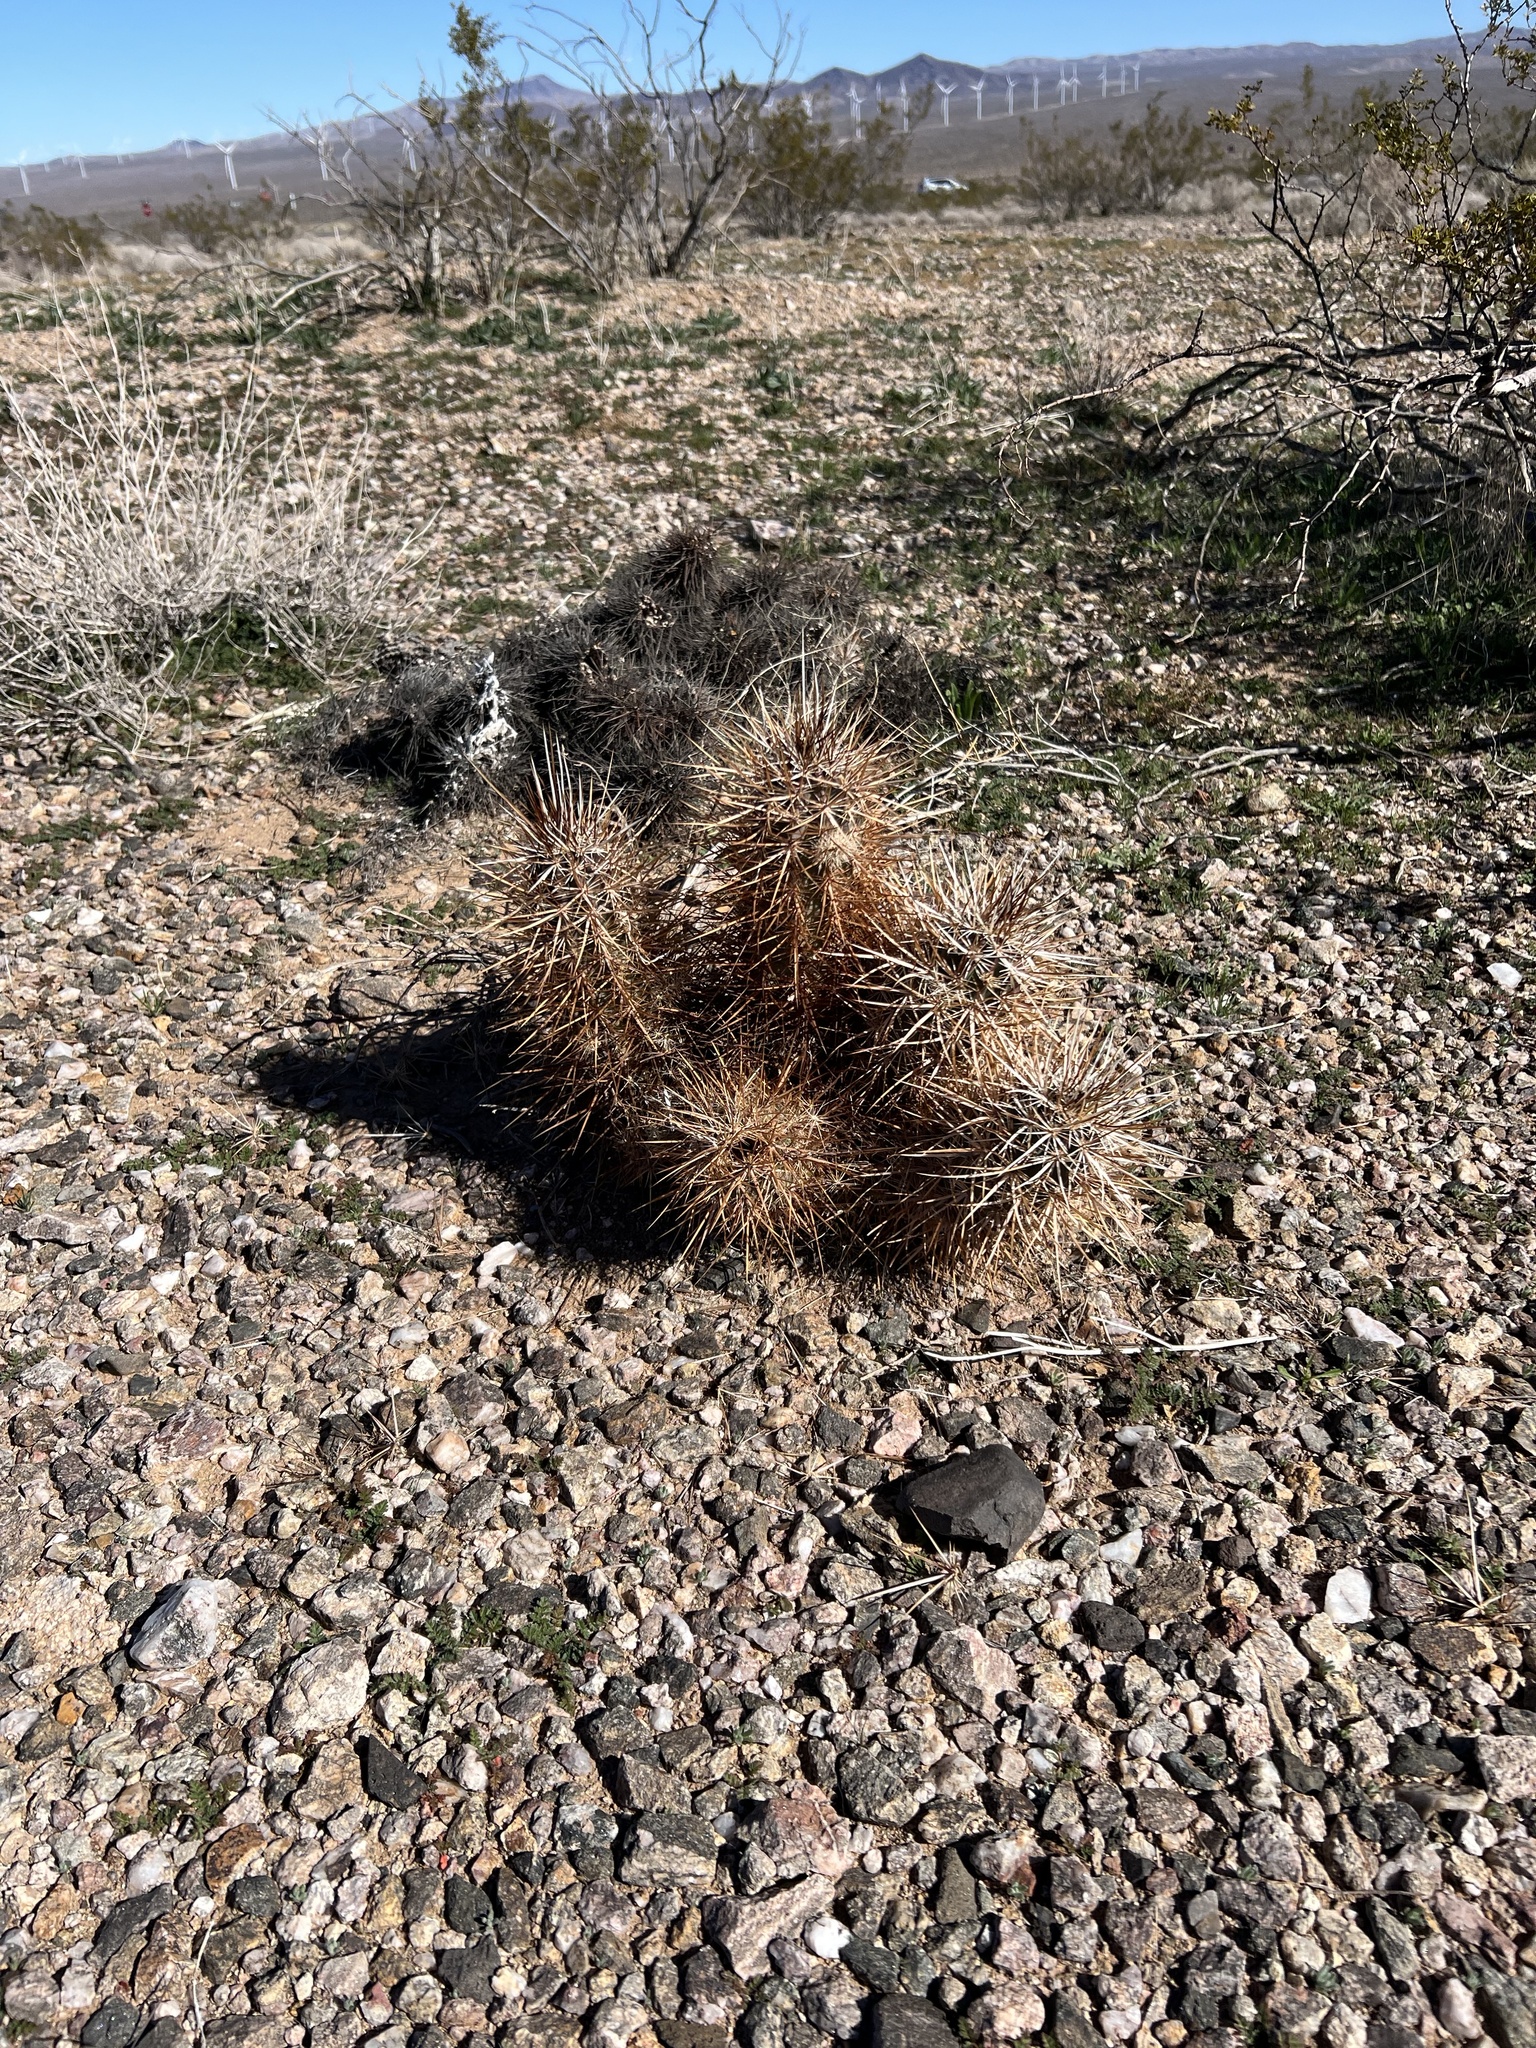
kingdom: Plantae
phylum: Tracheophyta
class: Magnoliopsida
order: Caryophyllales
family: Cactaceae
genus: Echinocereus
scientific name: Echinocereus engelmannii
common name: Engelmann's hedgehog cactus
